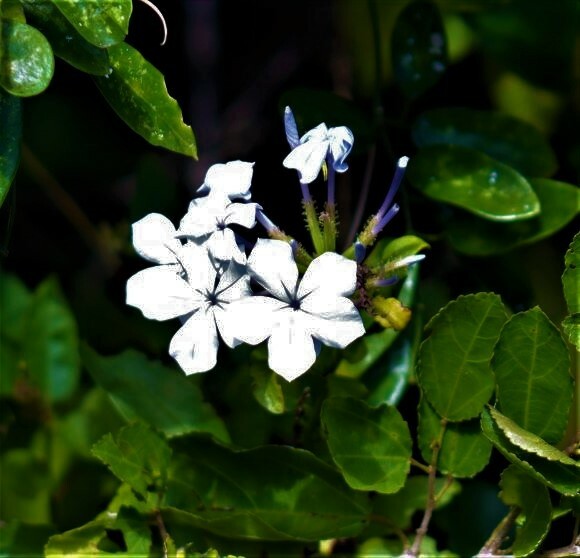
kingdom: Plantae
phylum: Tracheophyta
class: Magnoliopsida
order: Caryophyllales
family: Plumbaginaceae
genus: Plumbago
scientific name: Plumbago auriculata
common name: Cape leadwort
